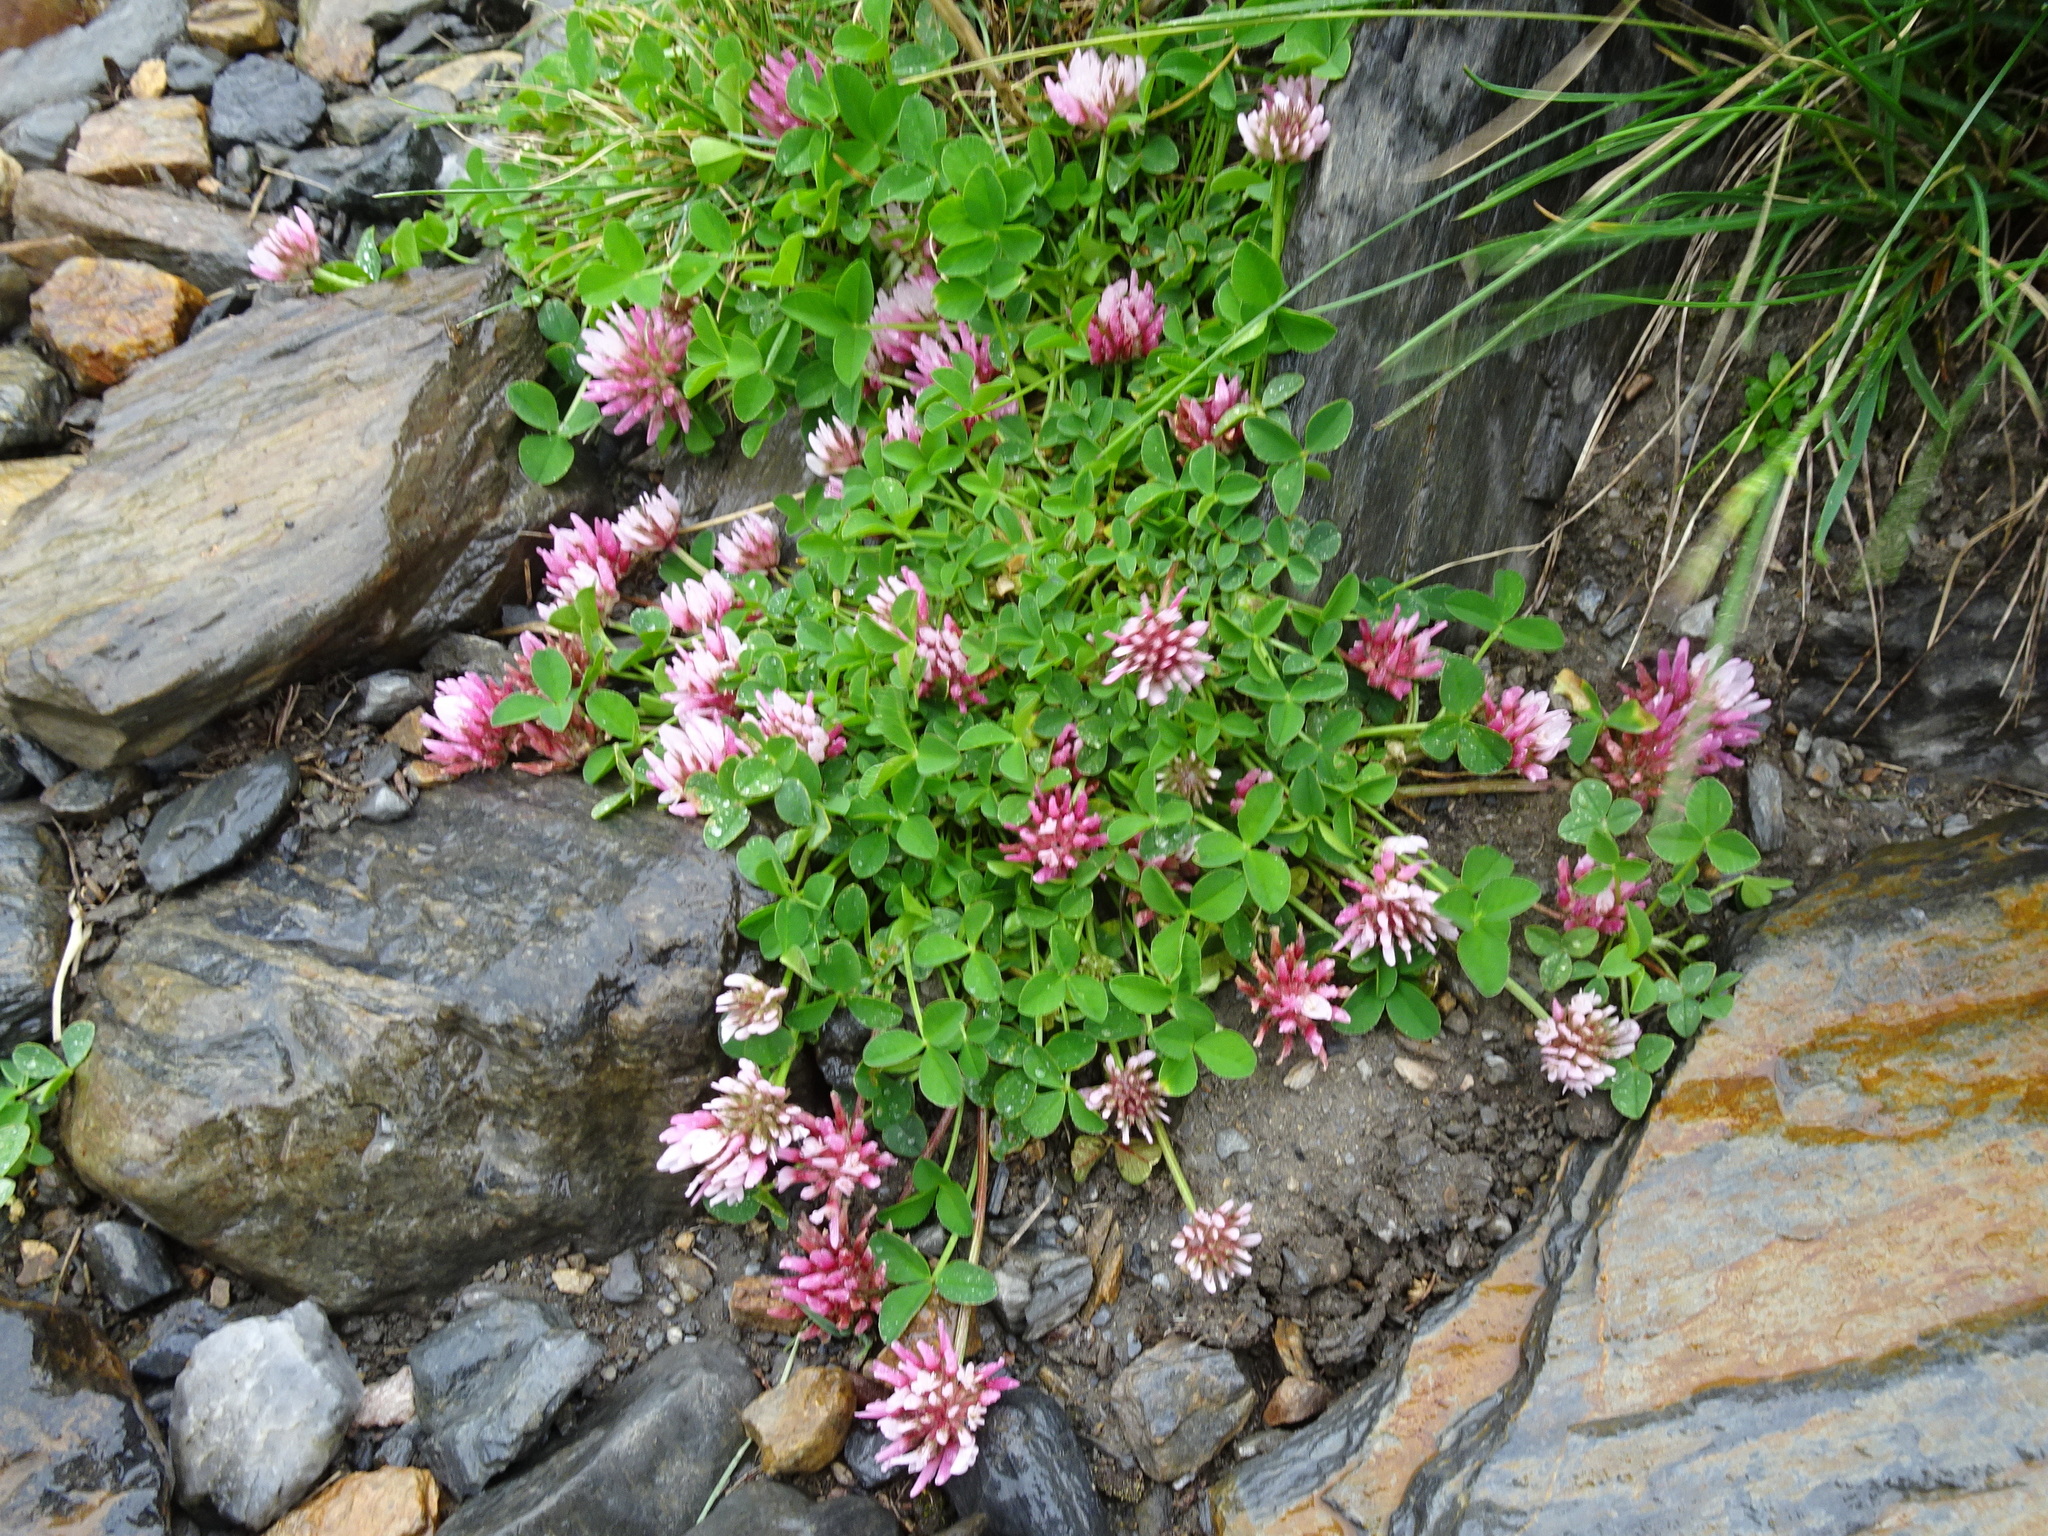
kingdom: Plantae
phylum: Tracheophyta
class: Magnoliopsida
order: Fabales
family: Fabaceae
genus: Trifolium
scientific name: Trifolium thalii
